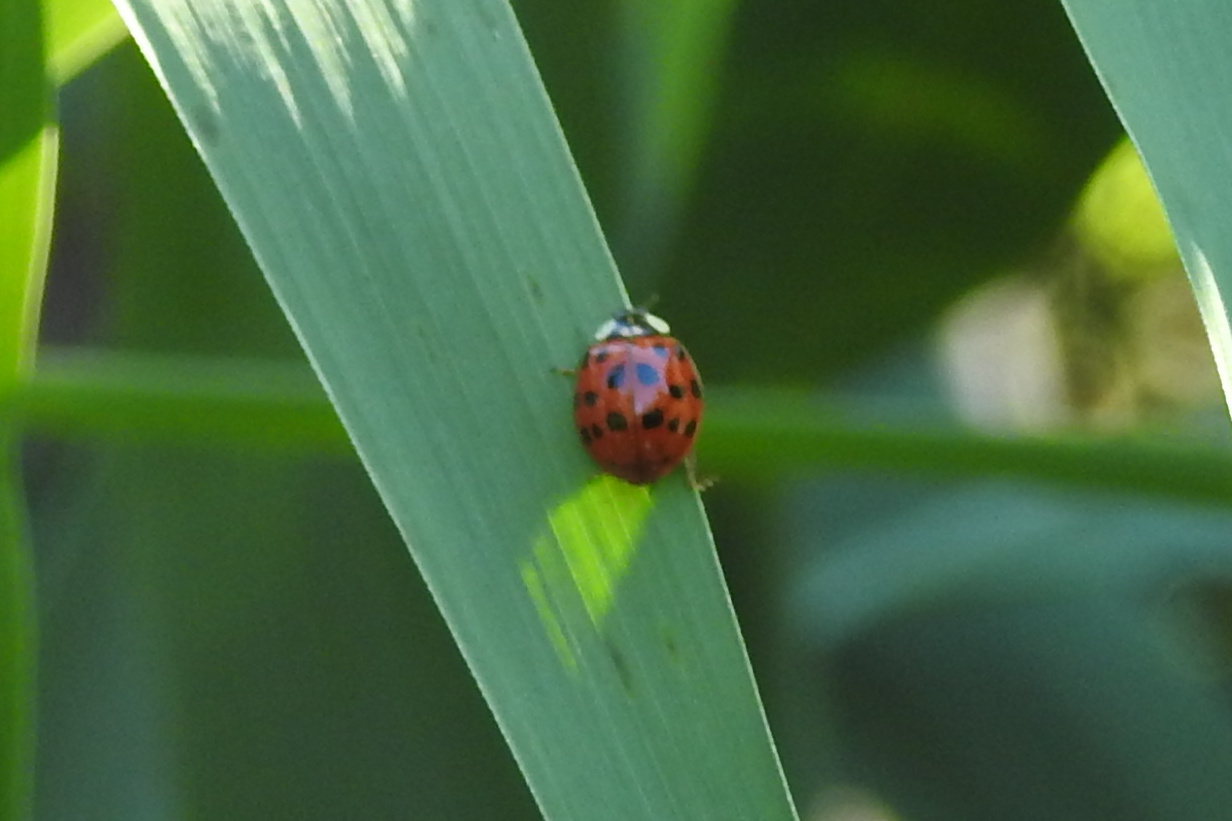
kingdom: Animalia
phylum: Arthropoda
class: Insecta
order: Coleoptera
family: Coccinellidae
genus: Harmonia
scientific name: Harmonia axyridis
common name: Harlequin ladybird
